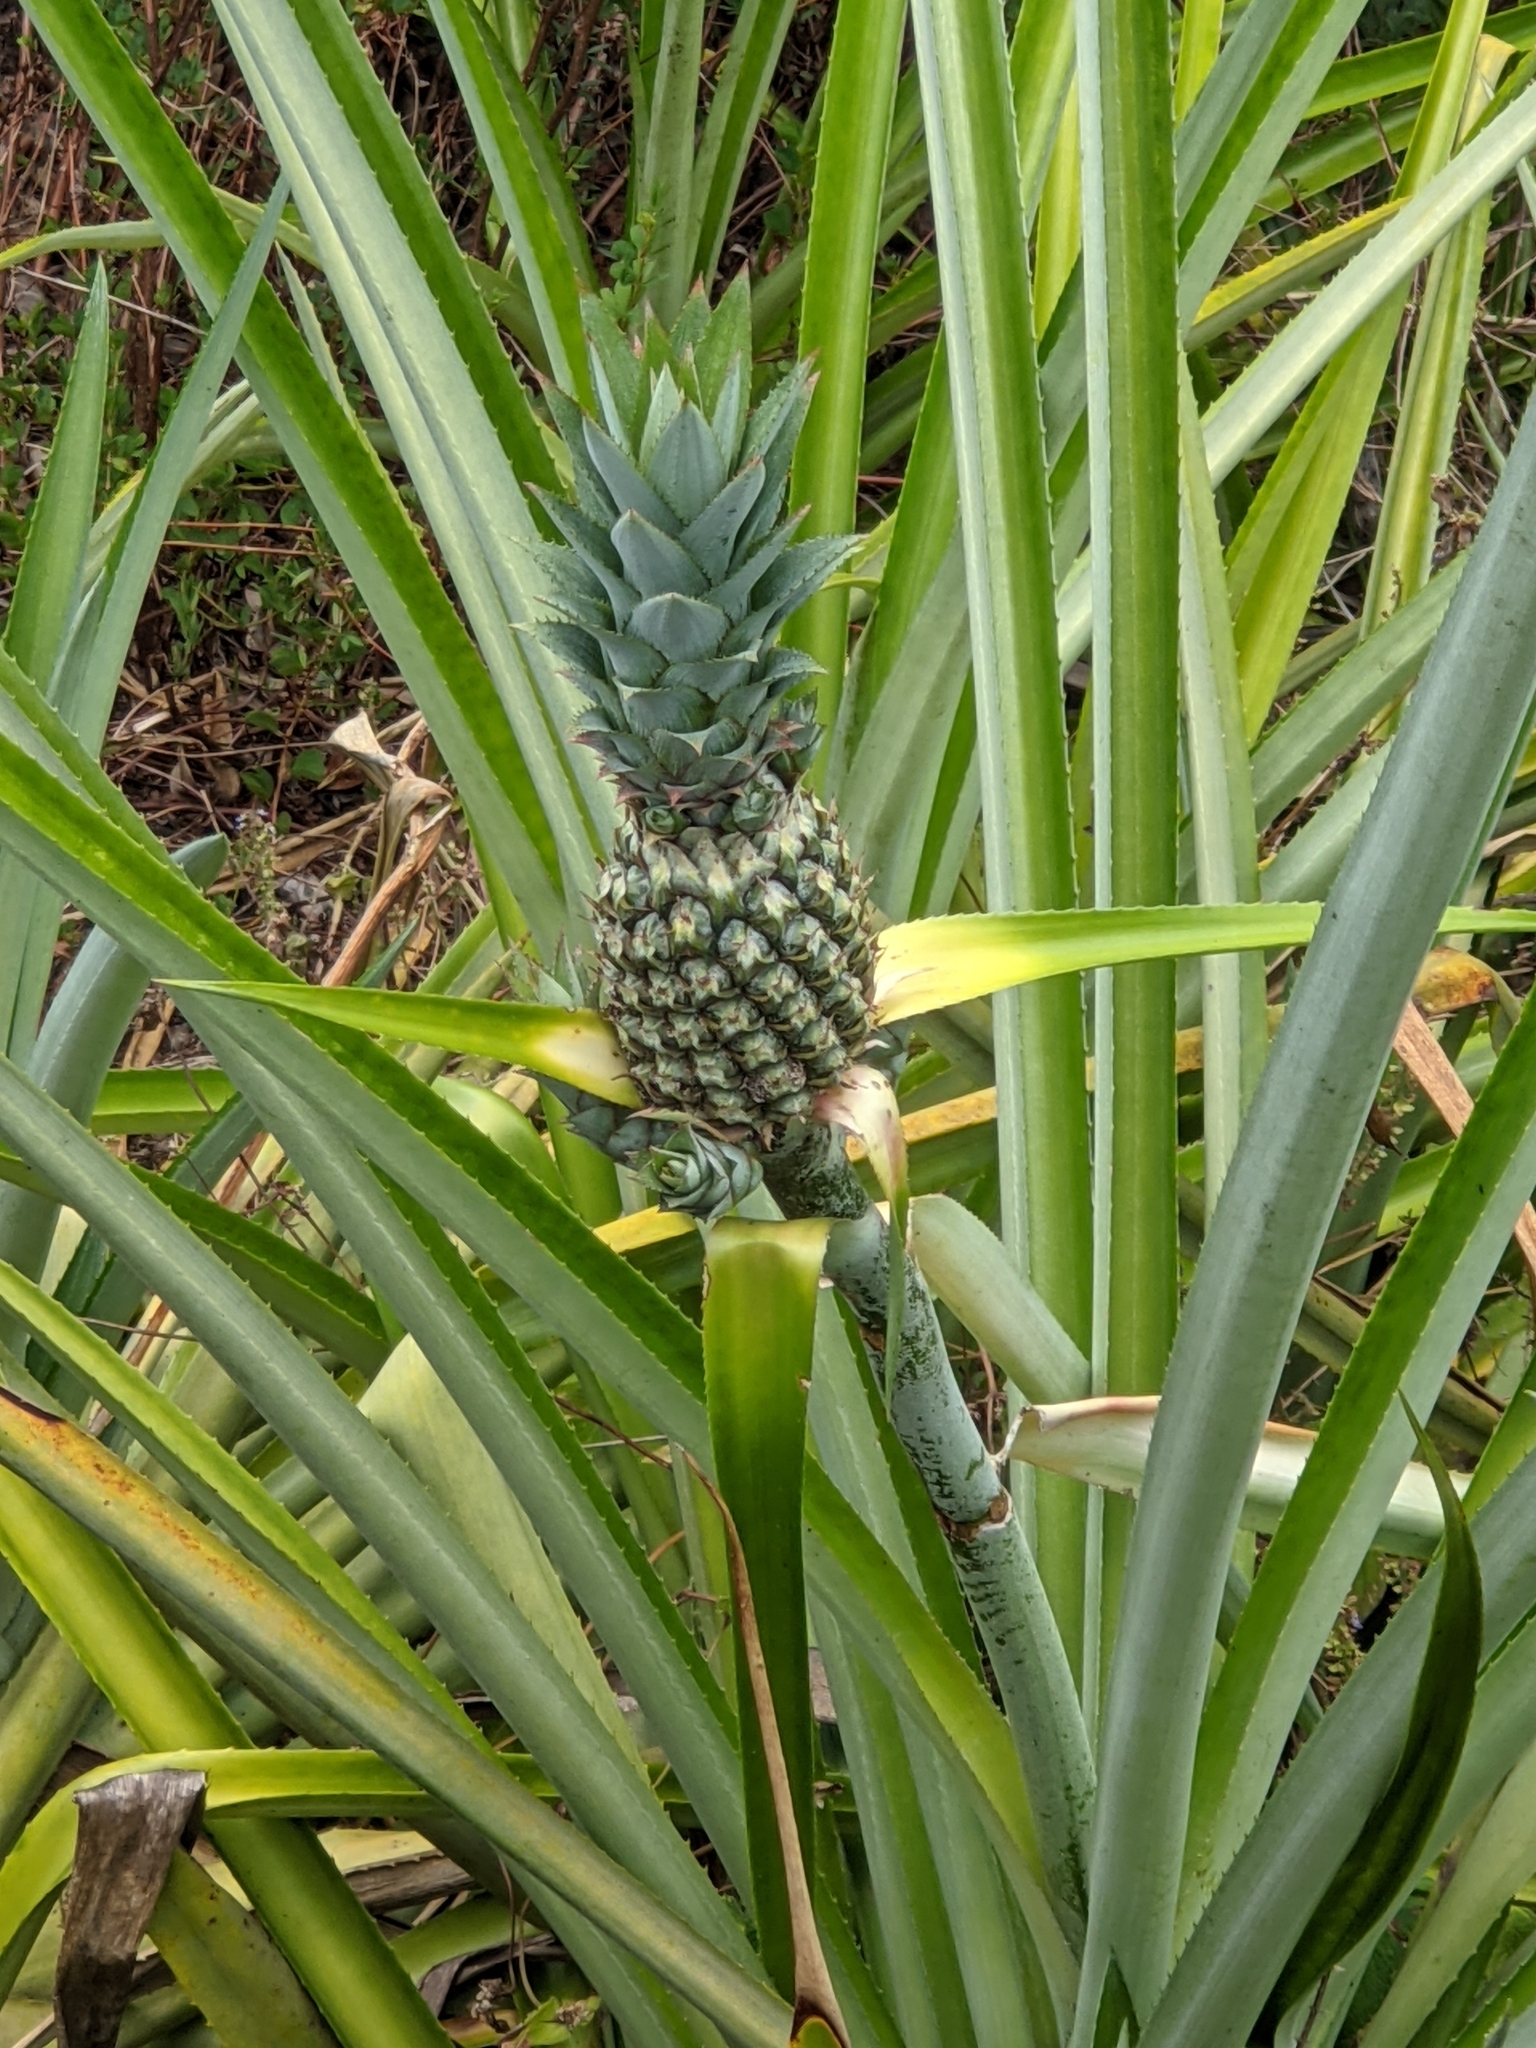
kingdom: Plantae
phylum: Tracheophyta
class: Liliopsida
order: Poales
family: Bromeliaceae
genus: Ananas
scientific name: Ananas comosus
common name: Pineapple
